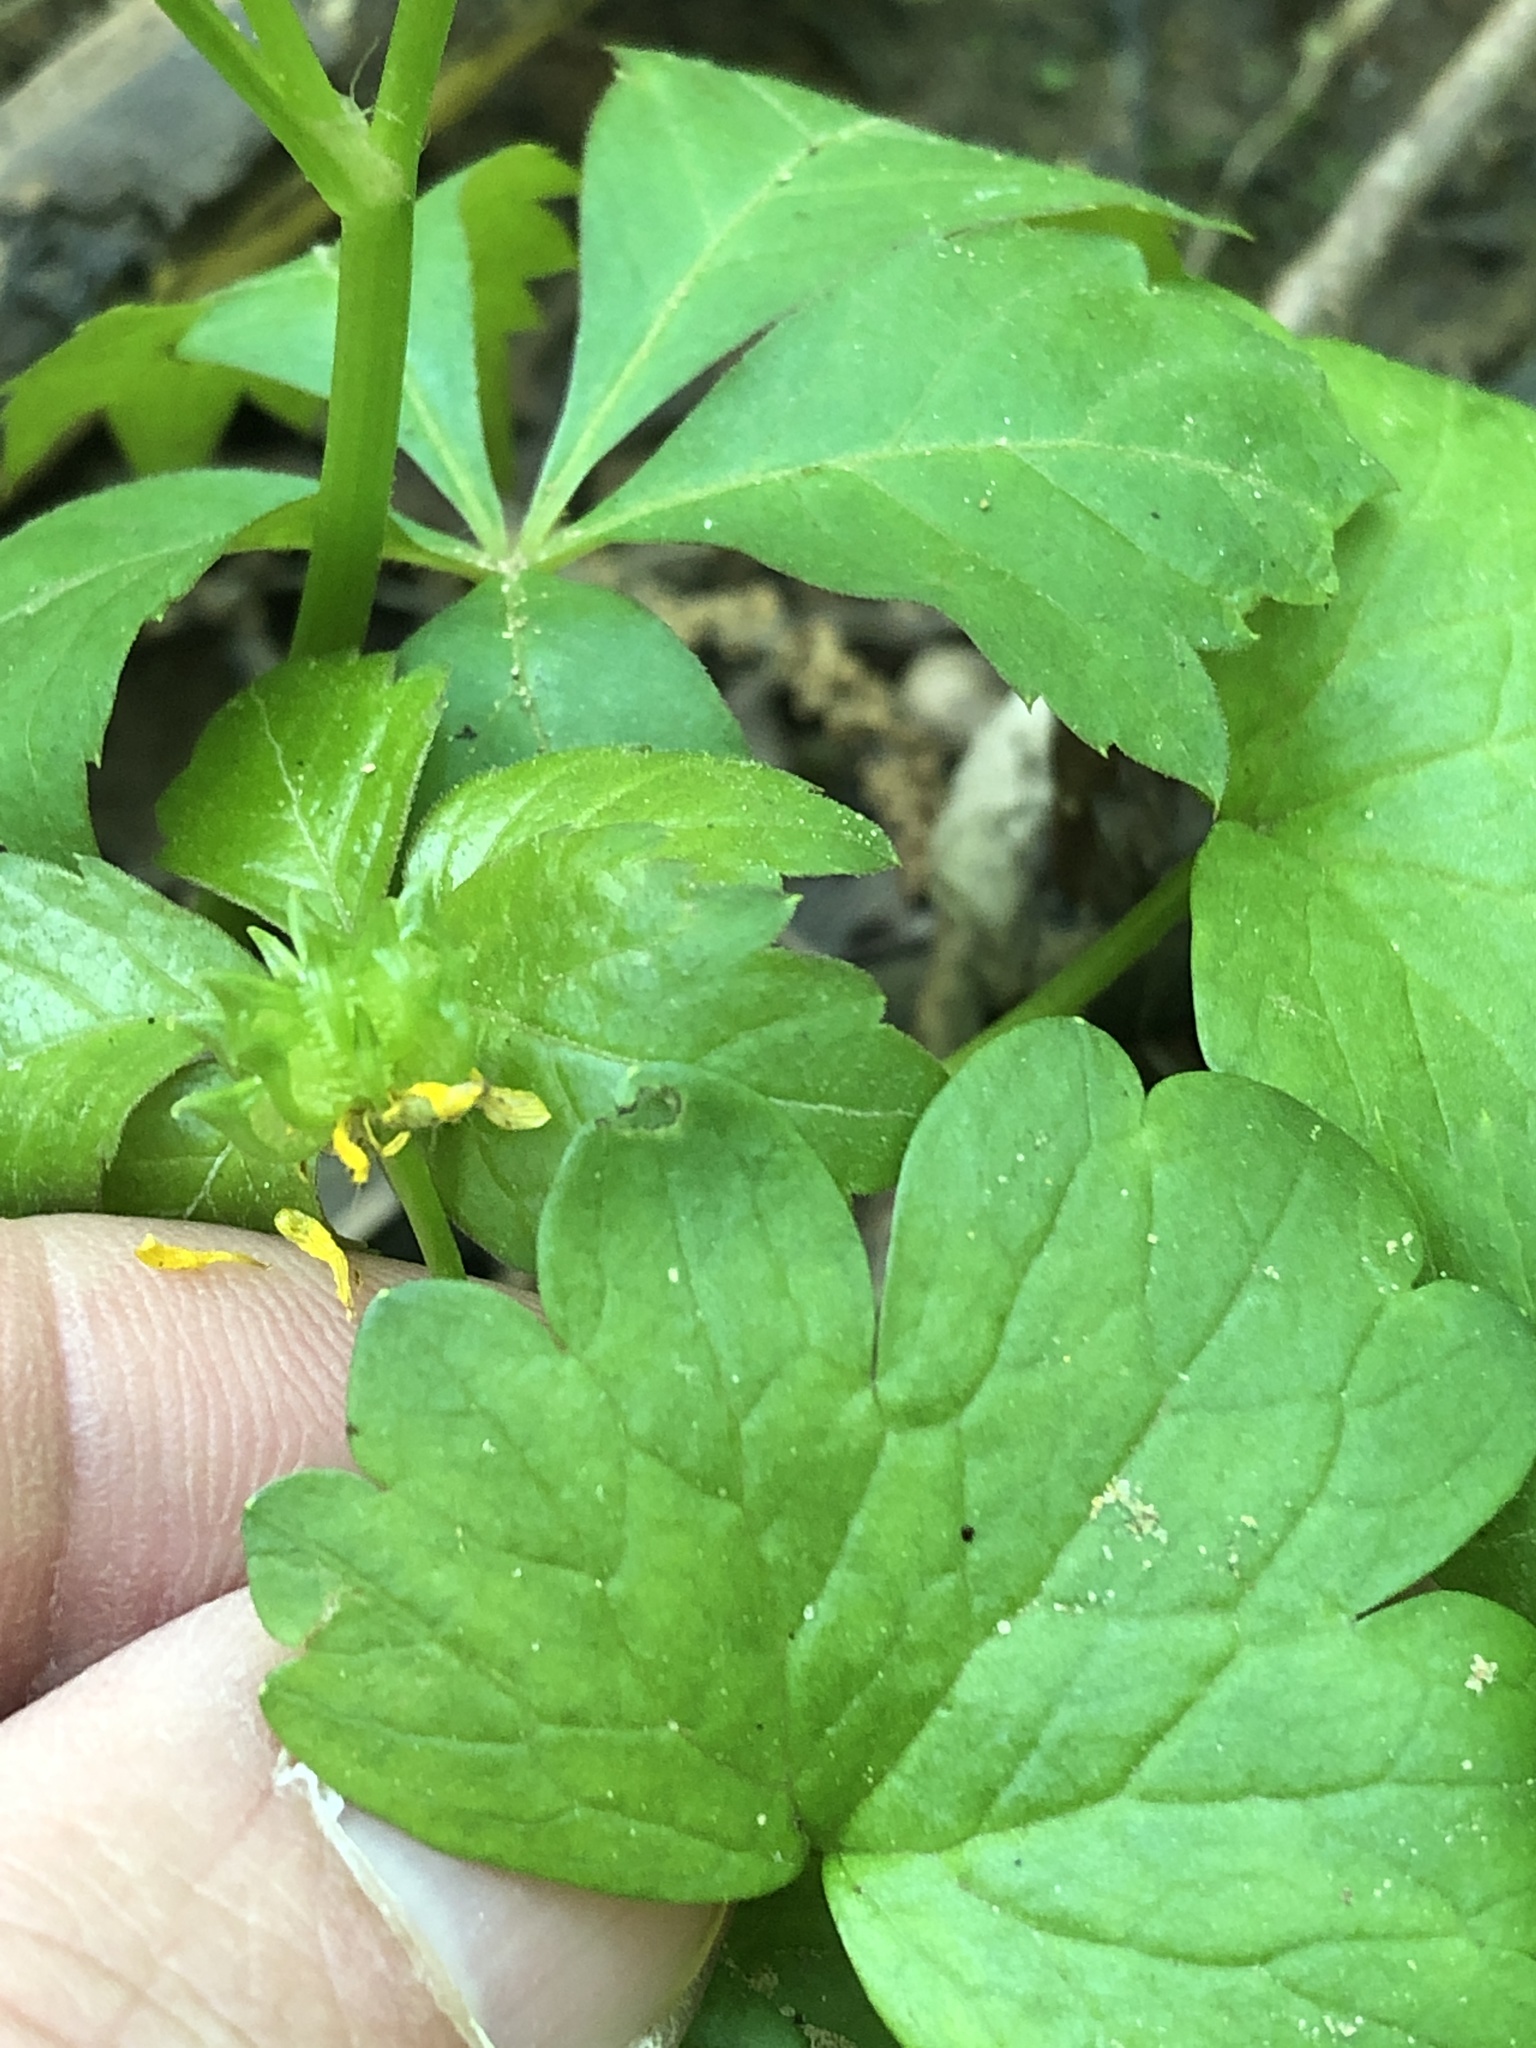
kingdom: Plantae
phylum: Tracheophyta
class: Magnoliopsida
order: Ranunculales
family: Ranunculaceae
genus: Ranunculus
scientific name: Ranunculus muricatus
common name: Rough-fruited buttercup
